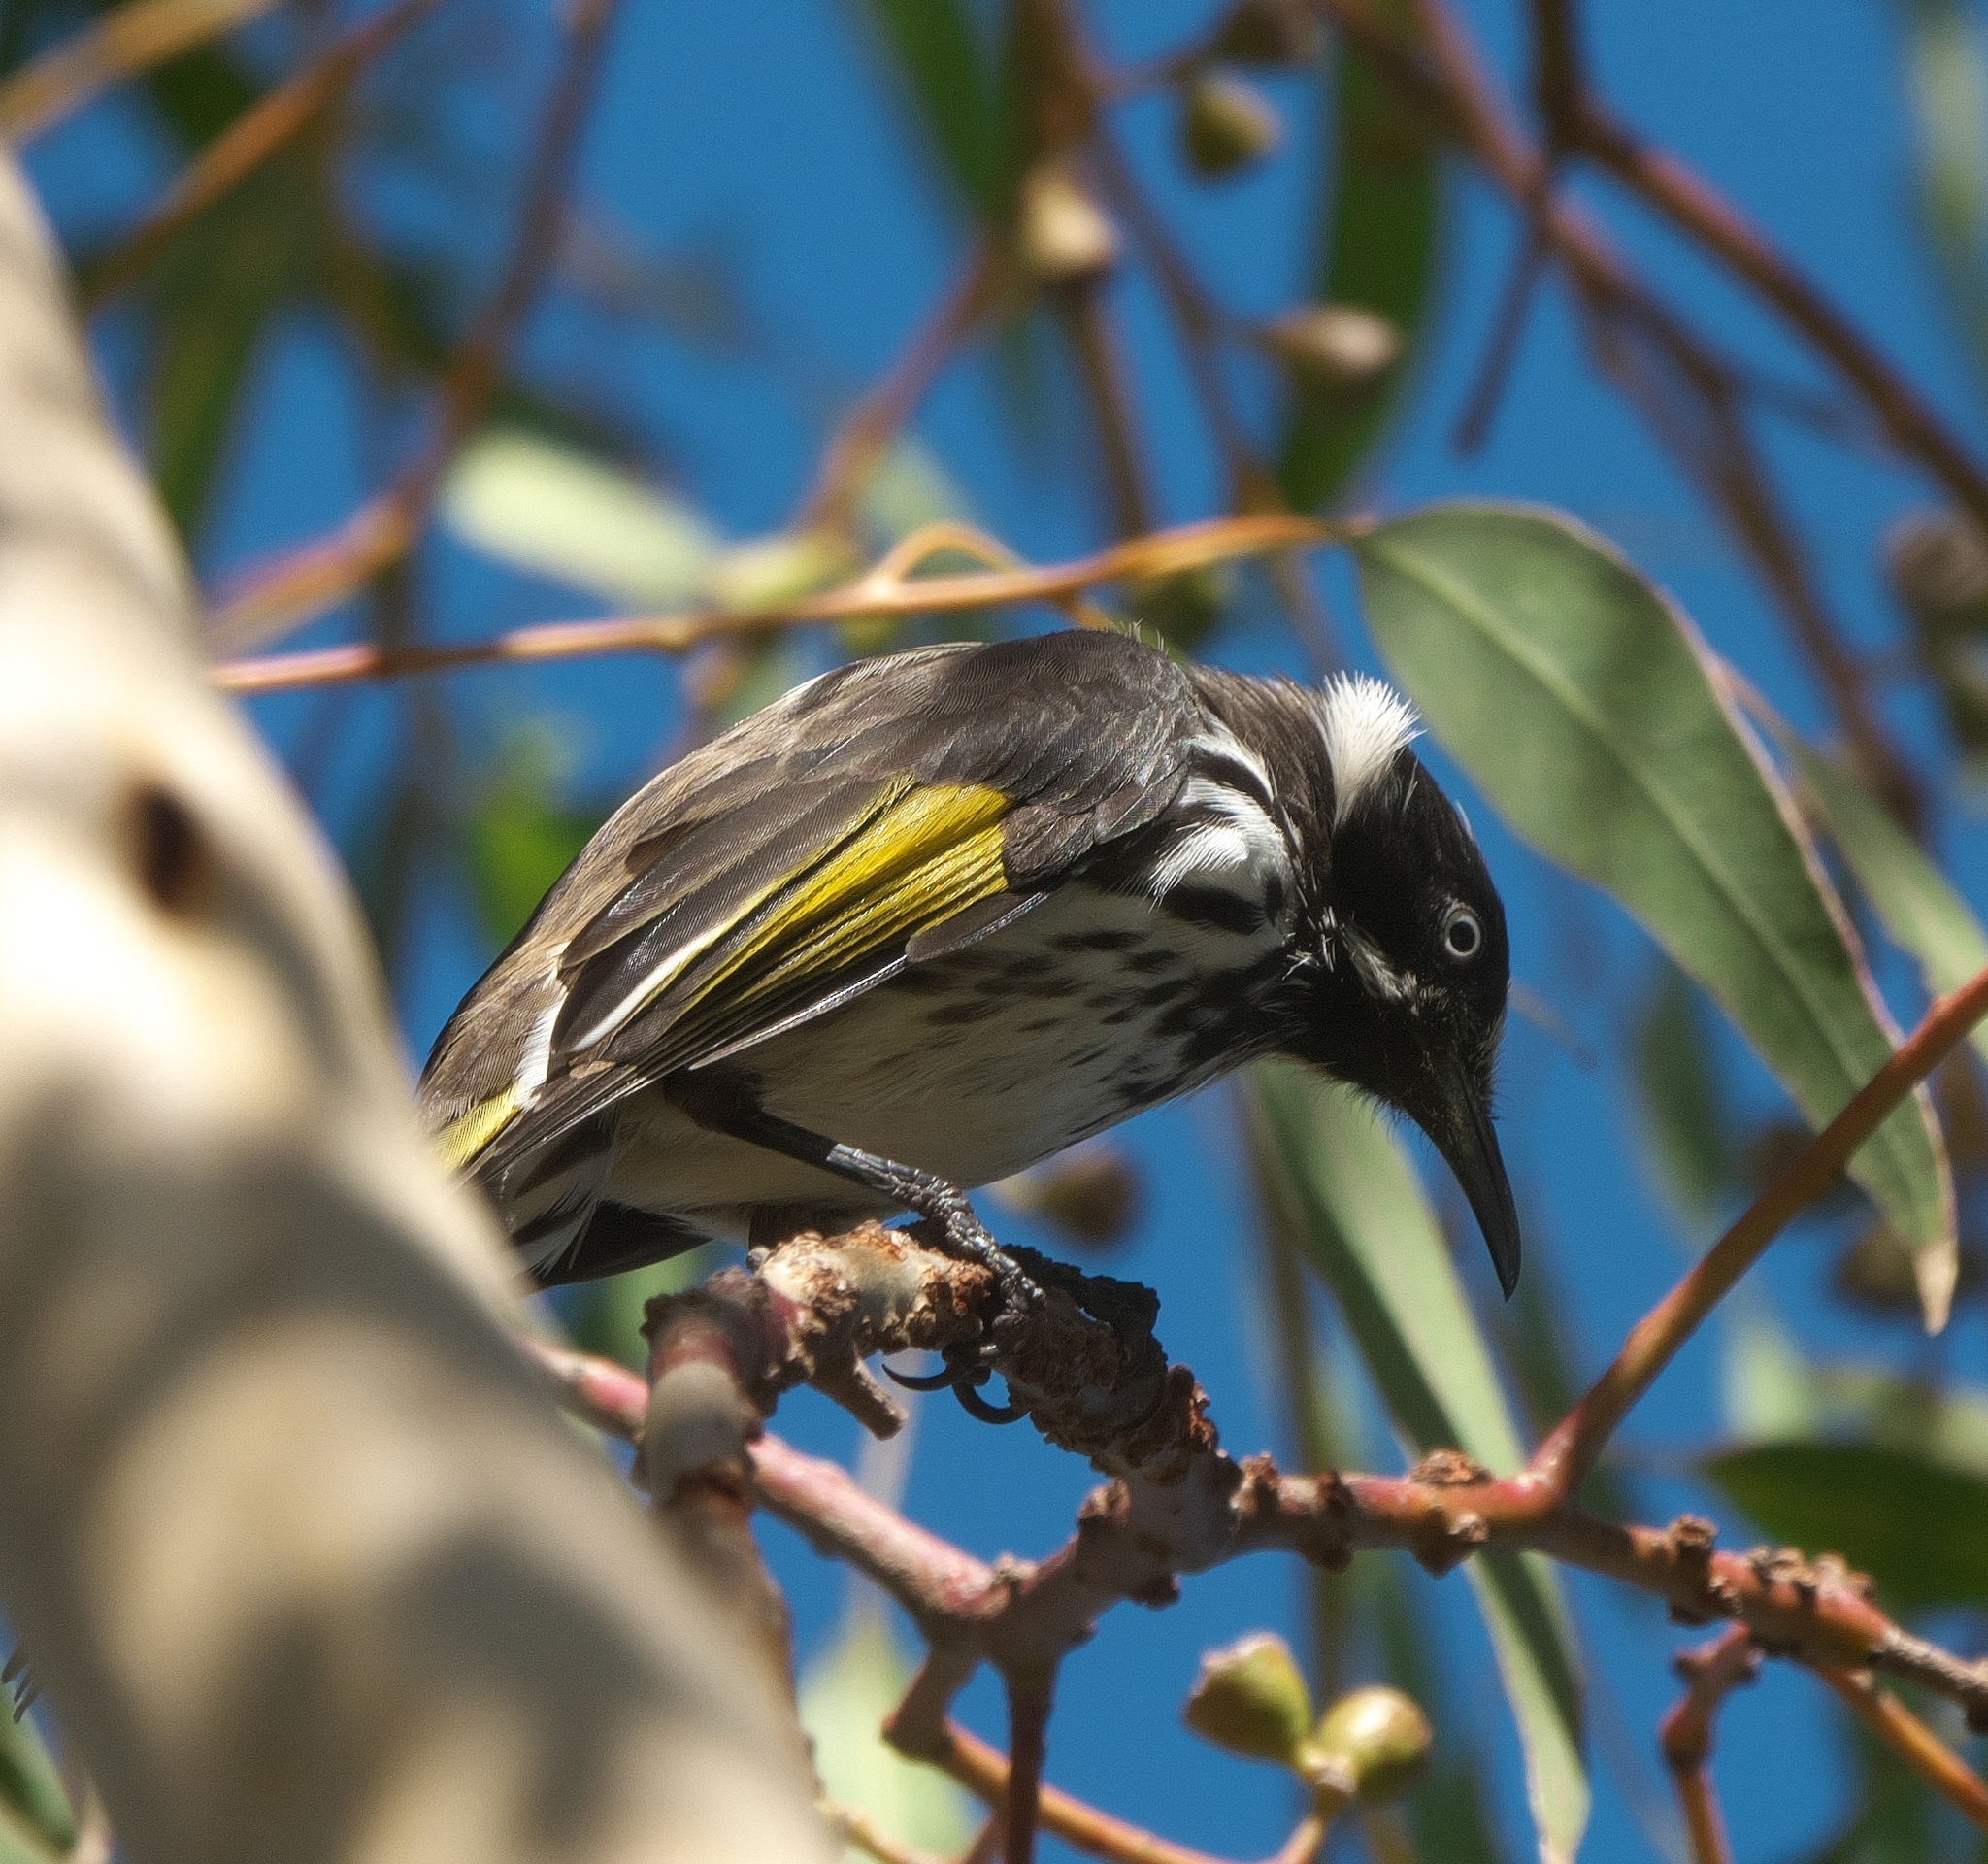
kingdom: Animalia
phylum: Chordata
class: Aves
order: Passeriformes
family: Meliphagidae
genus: Phylidonyris
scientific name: Phylidonyris novaehollandiae
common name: New holland honeyeater
